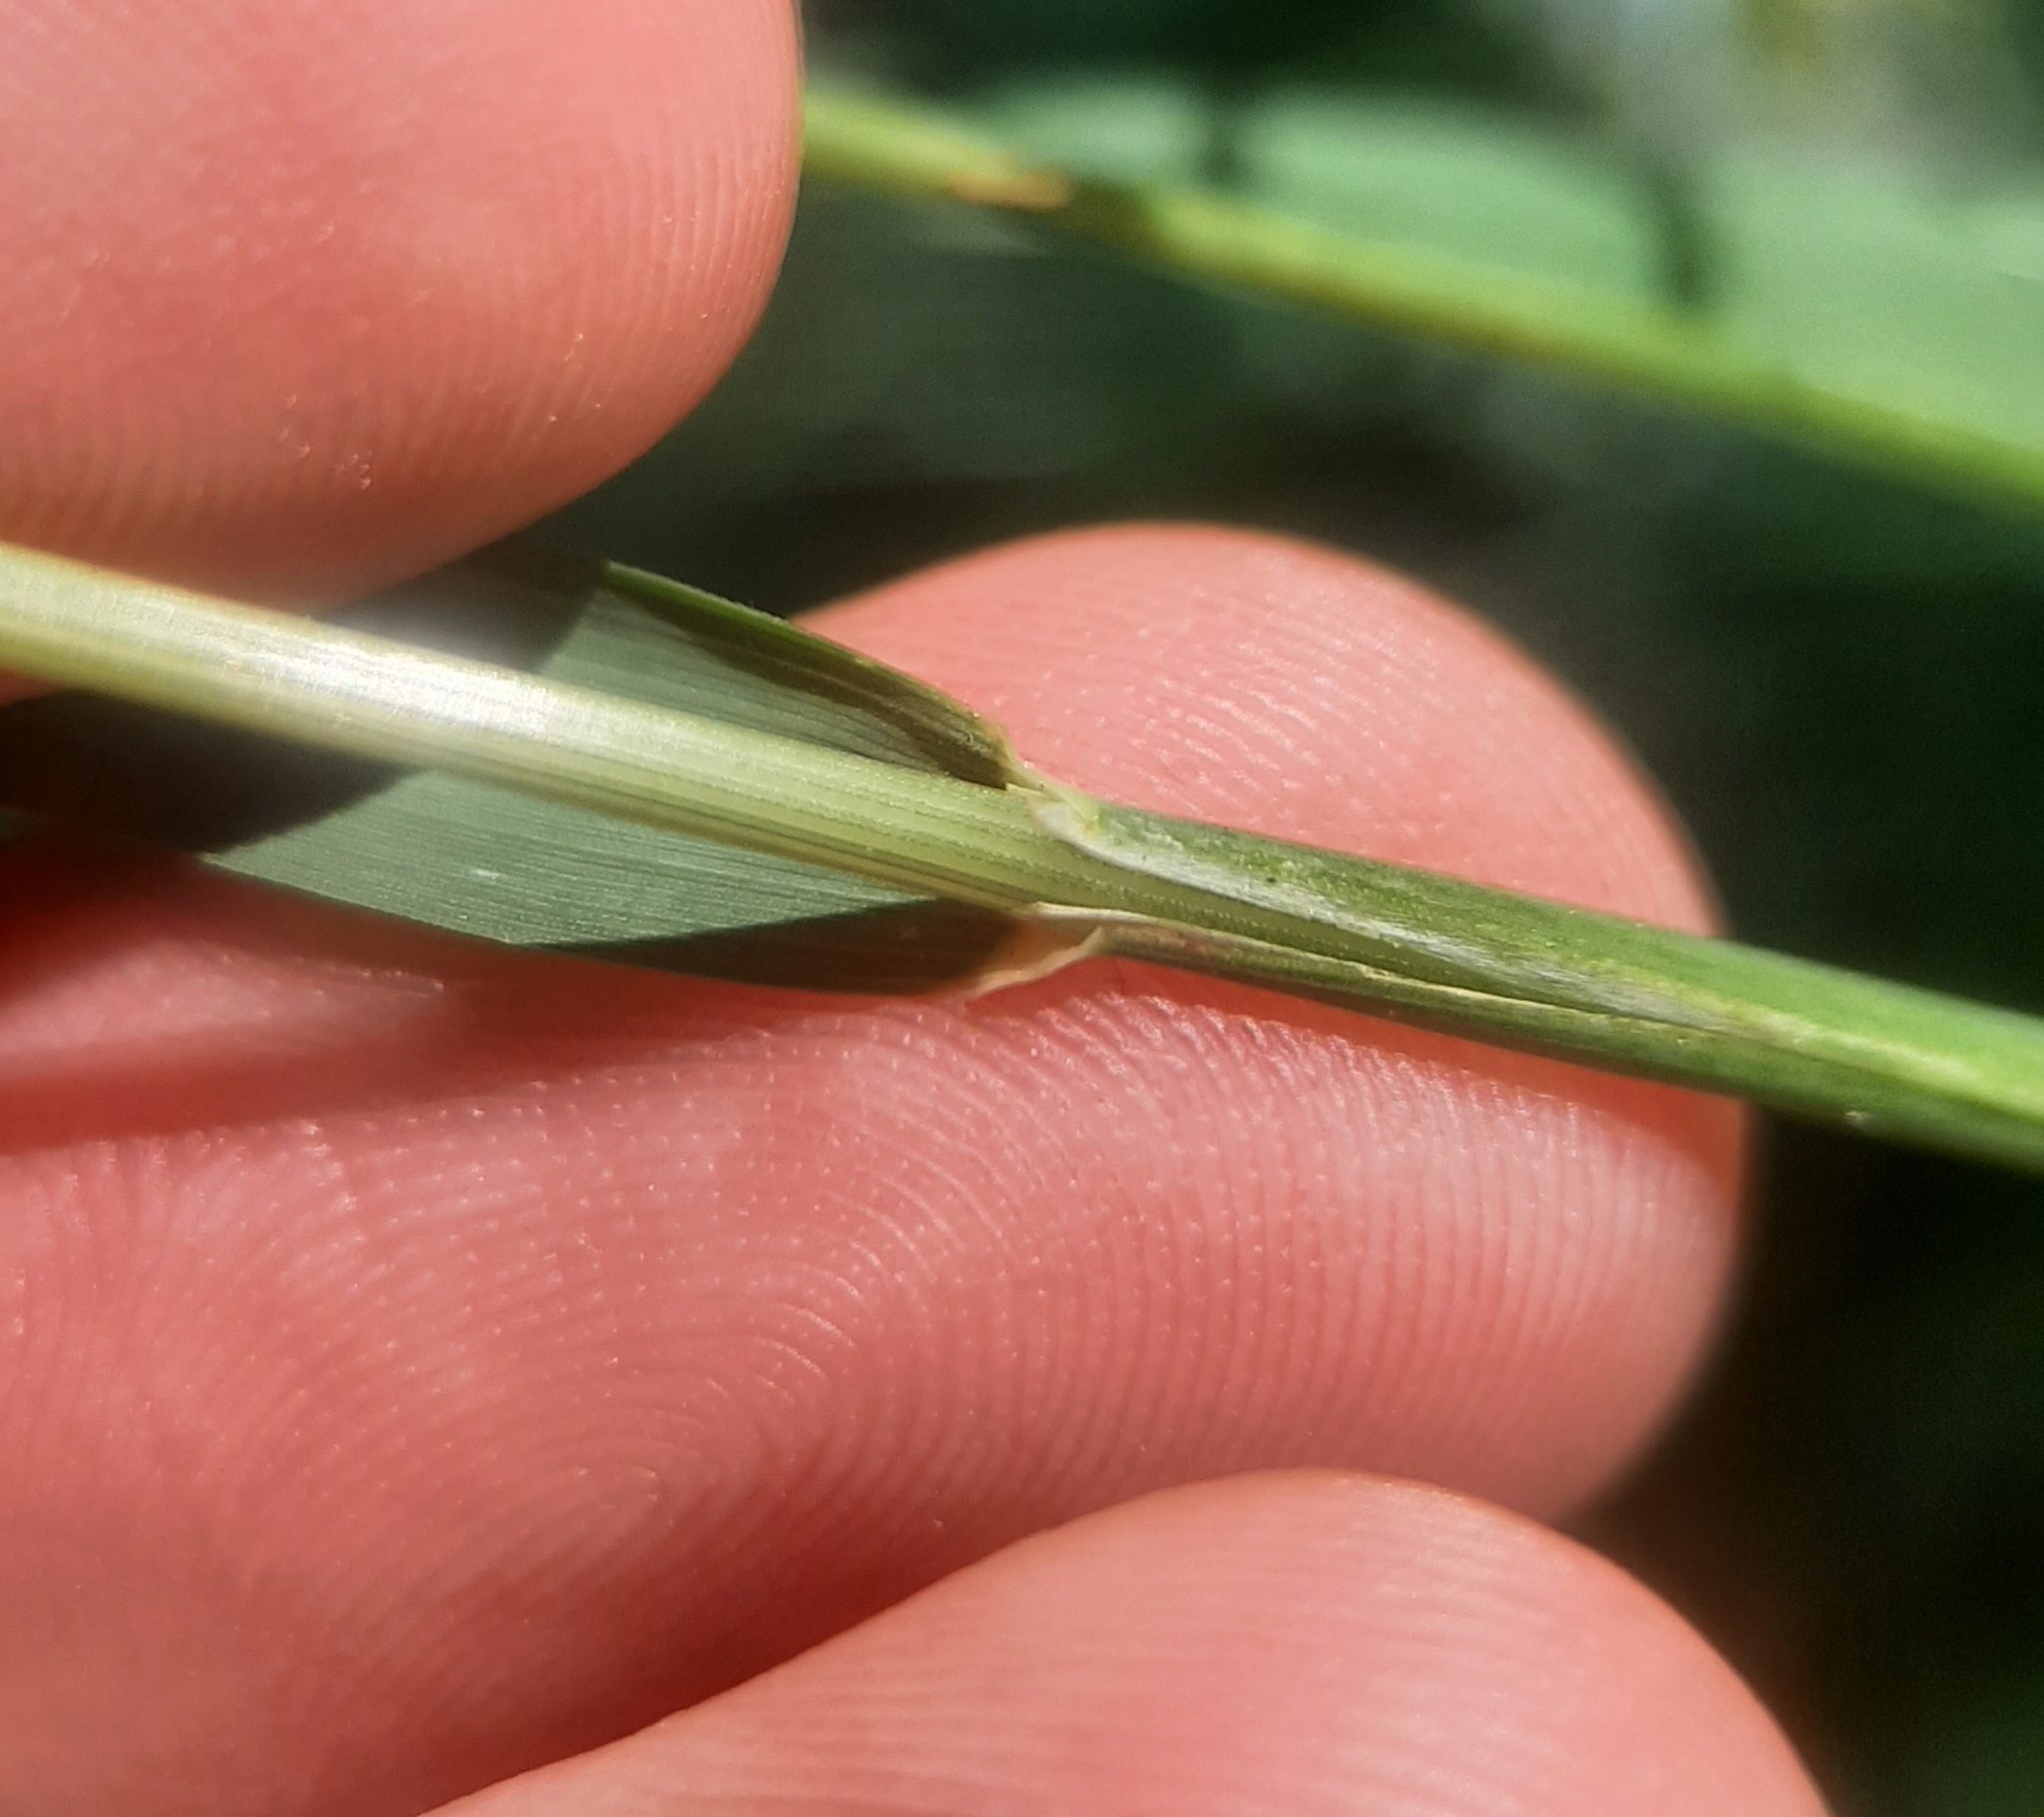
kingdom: Plantae
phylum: Tracheophyta
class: Liliopsida
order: Poales
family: Poaceae
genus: Arrhenatherum
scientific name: Arrhenatherum elatius
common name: Tall oatgrass
